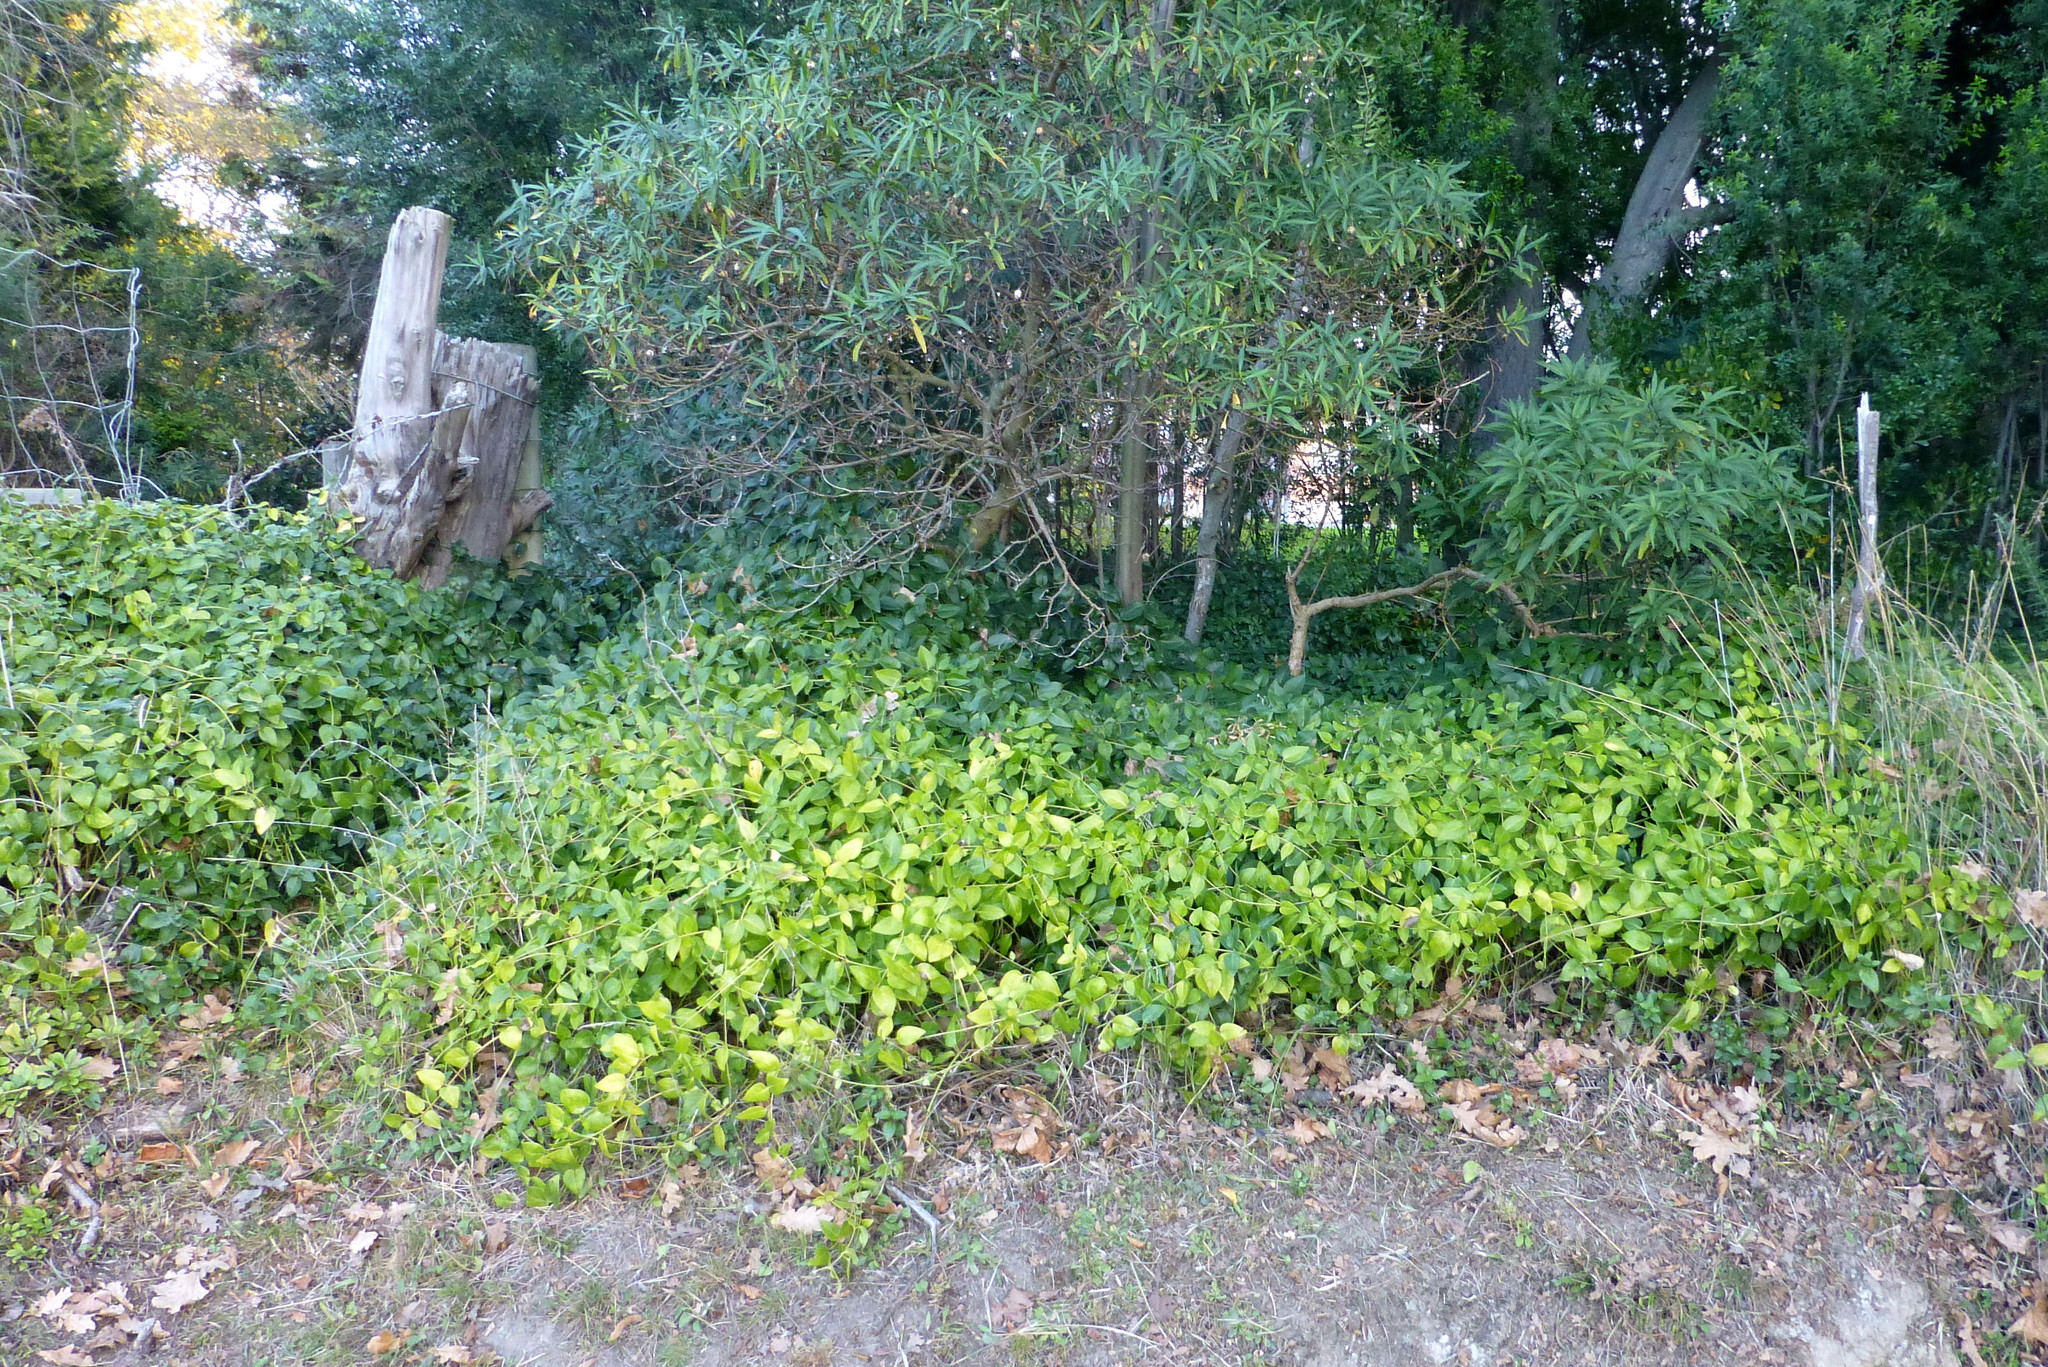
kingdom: Plantae
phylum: Tracheophyta
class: Magnoliopsida
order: Gentianales
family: Apocynaceae
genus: Vinca
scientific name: Vinca major
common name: Greater periwinkle
